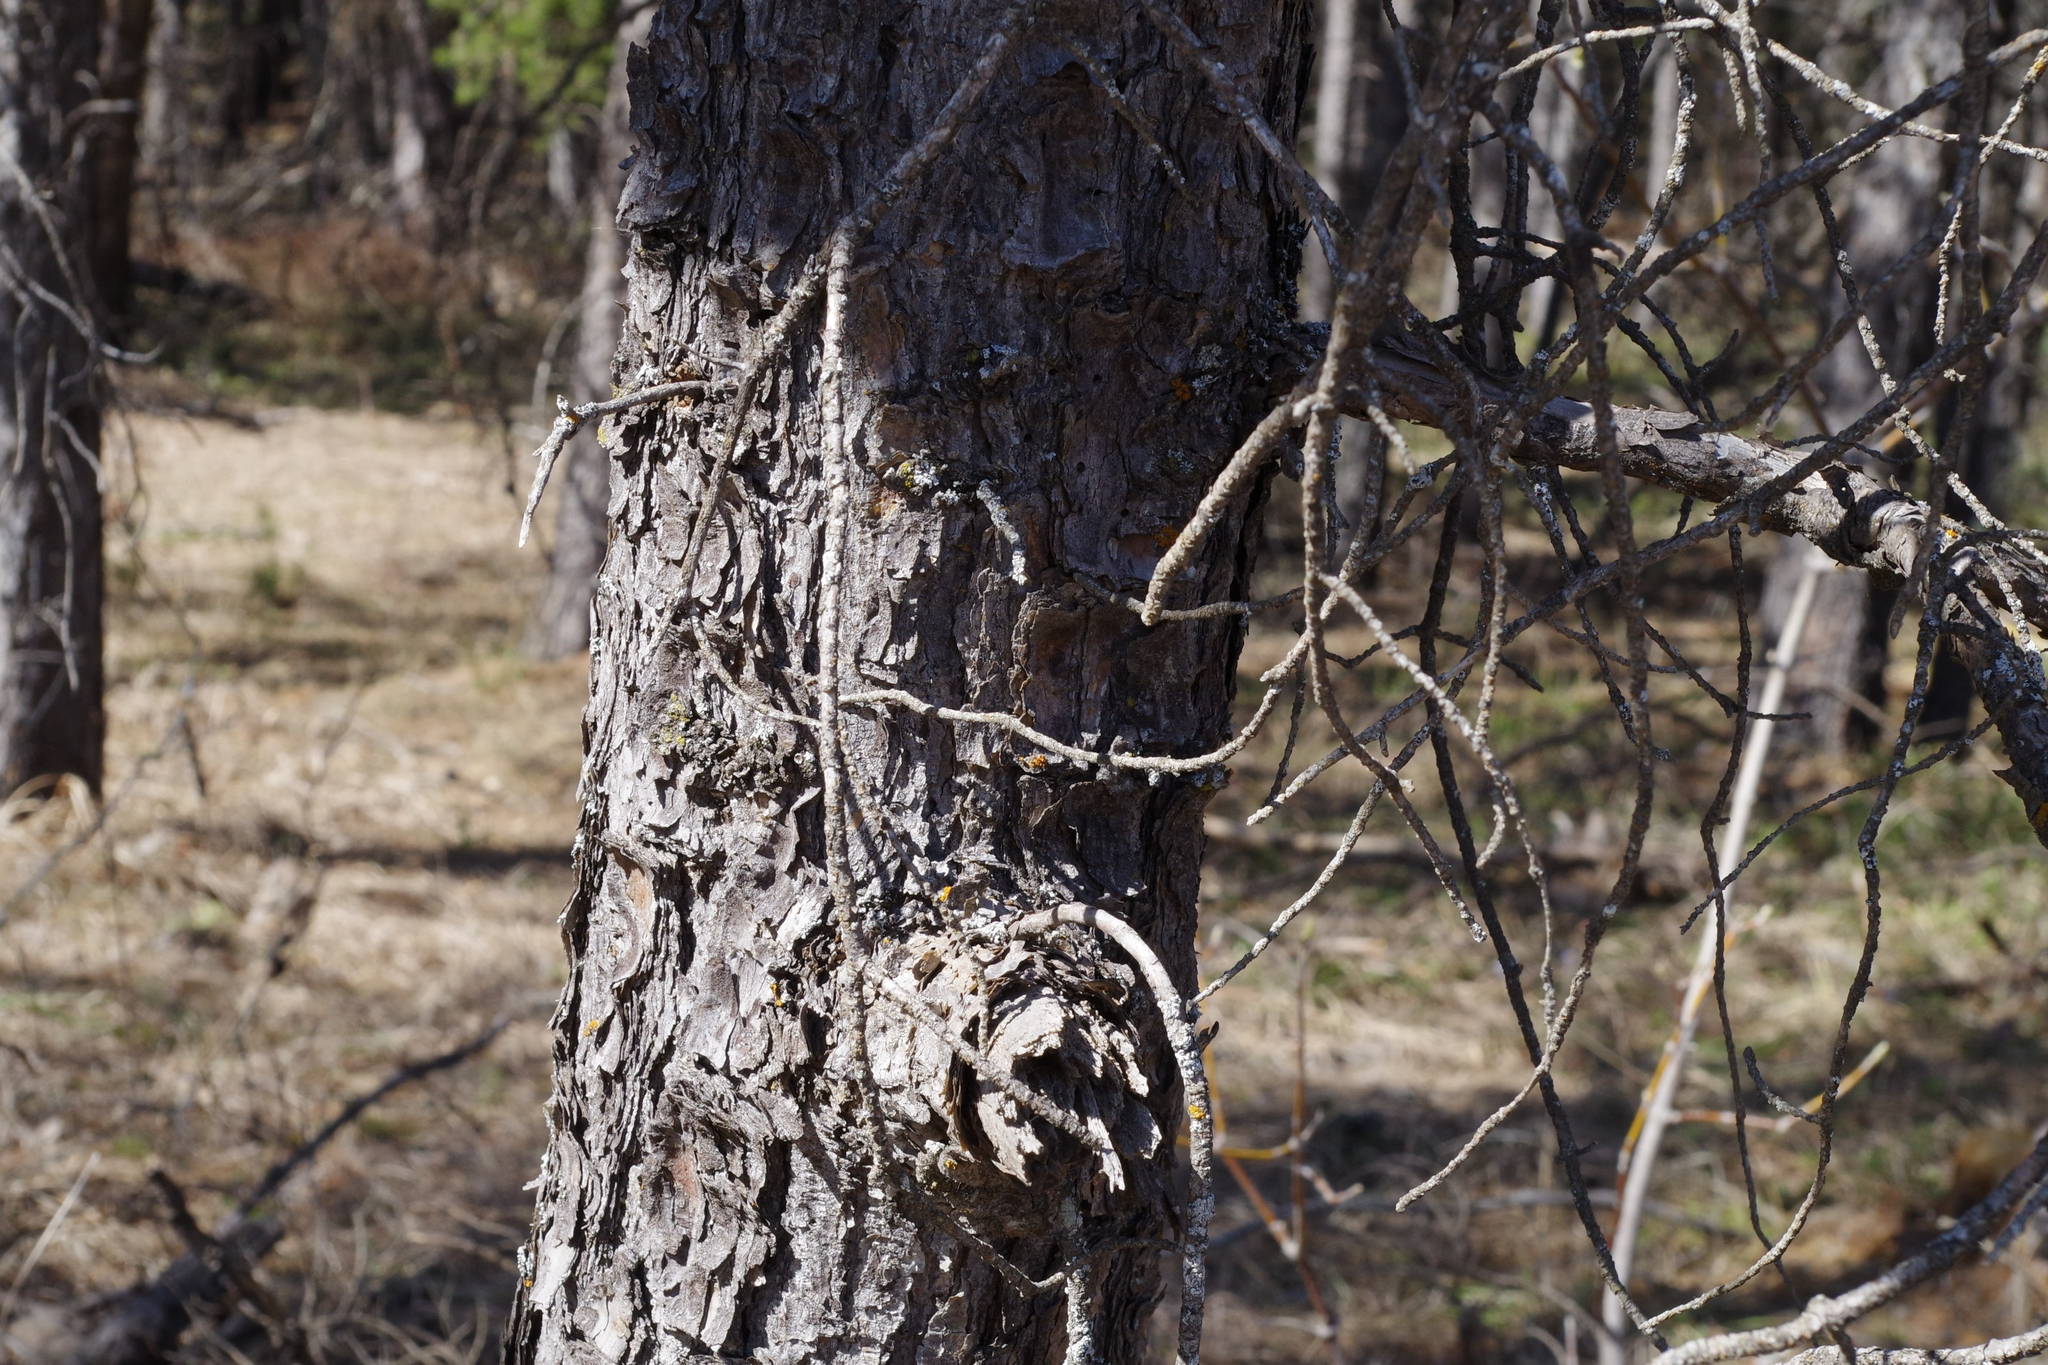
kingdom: Plantae
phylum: Tracheophyta
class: Pinopsida
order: Pinales
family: Pinaceae
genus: Pinus
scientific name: Pinus banksiana
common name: Jack pine
